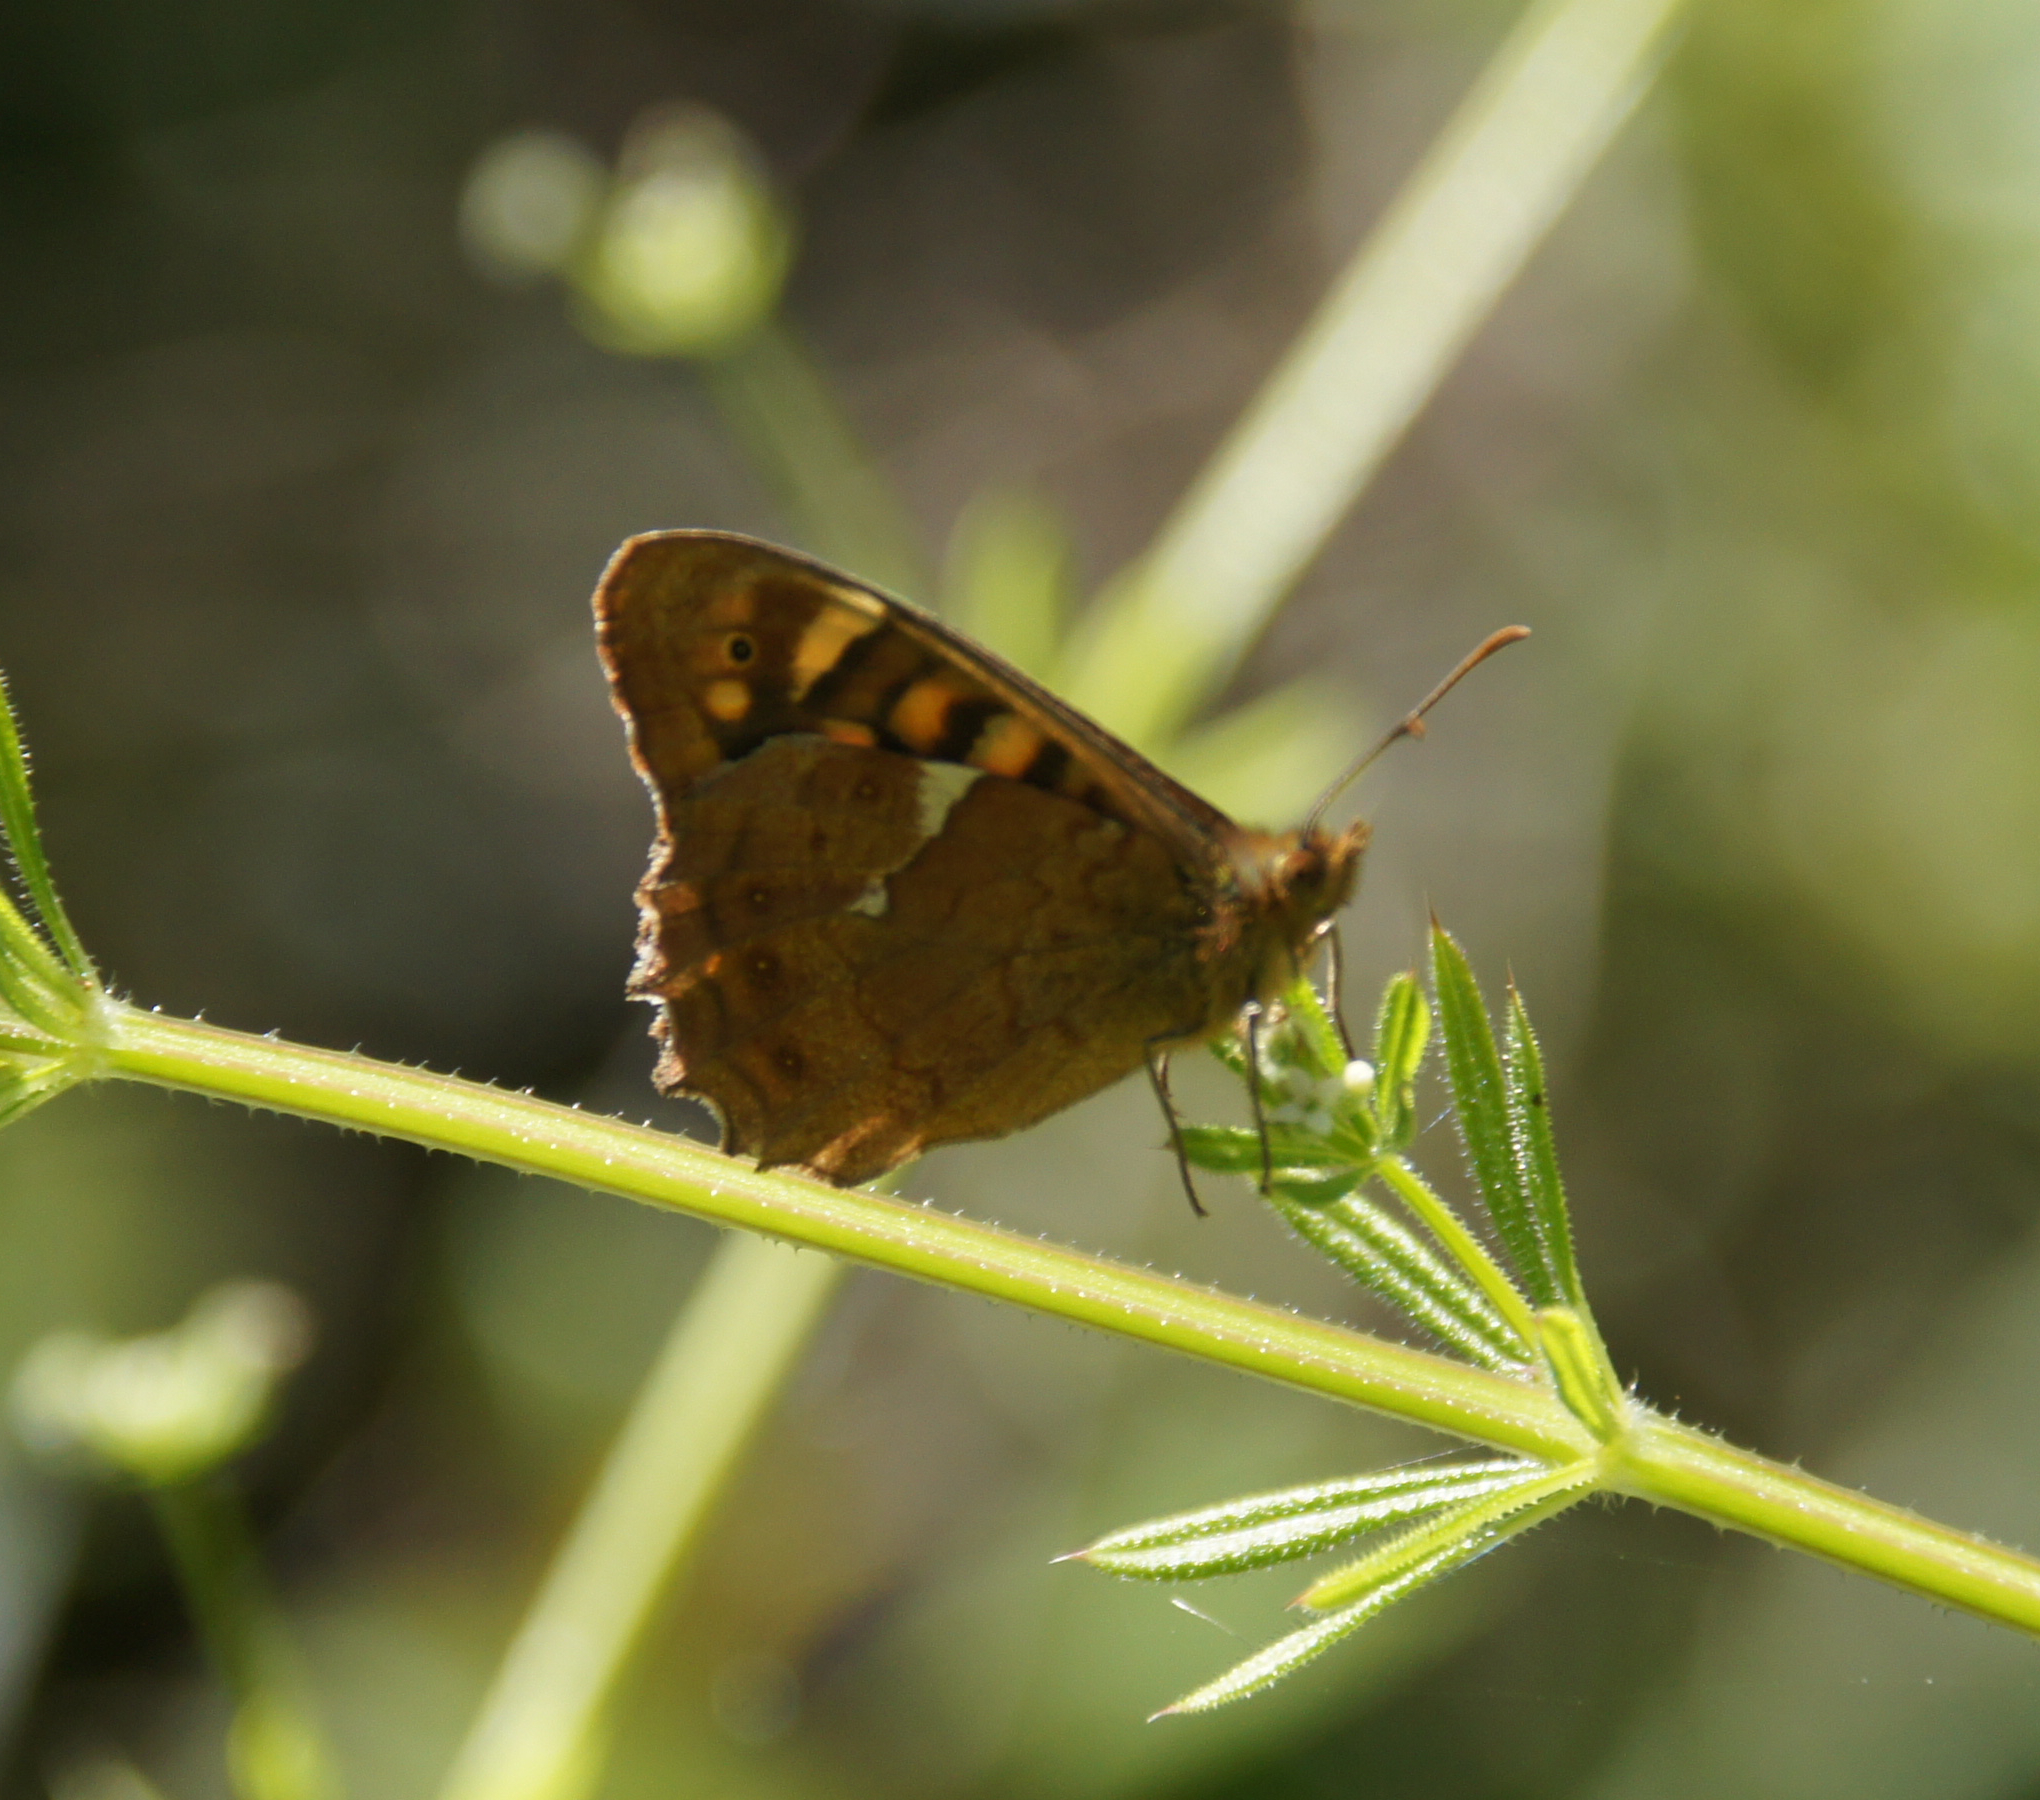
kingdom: Animalia
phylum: Arthropoda
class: Insecta
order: Lepidoptera
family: Nymphalidae
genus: Pararge
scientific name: Pararge aegeria
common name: Speckled wood
